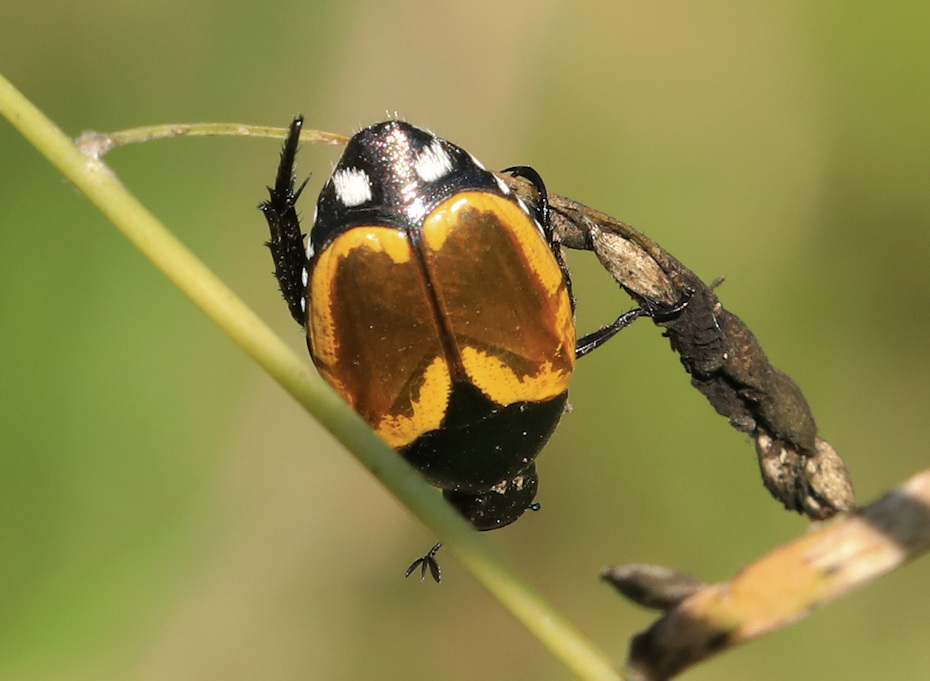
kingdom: Animalia
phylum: Arthropoda
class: Insecta
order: Coleoptera
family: Scarabaeidae
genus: Popillia
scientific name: Popillia bipunctata
